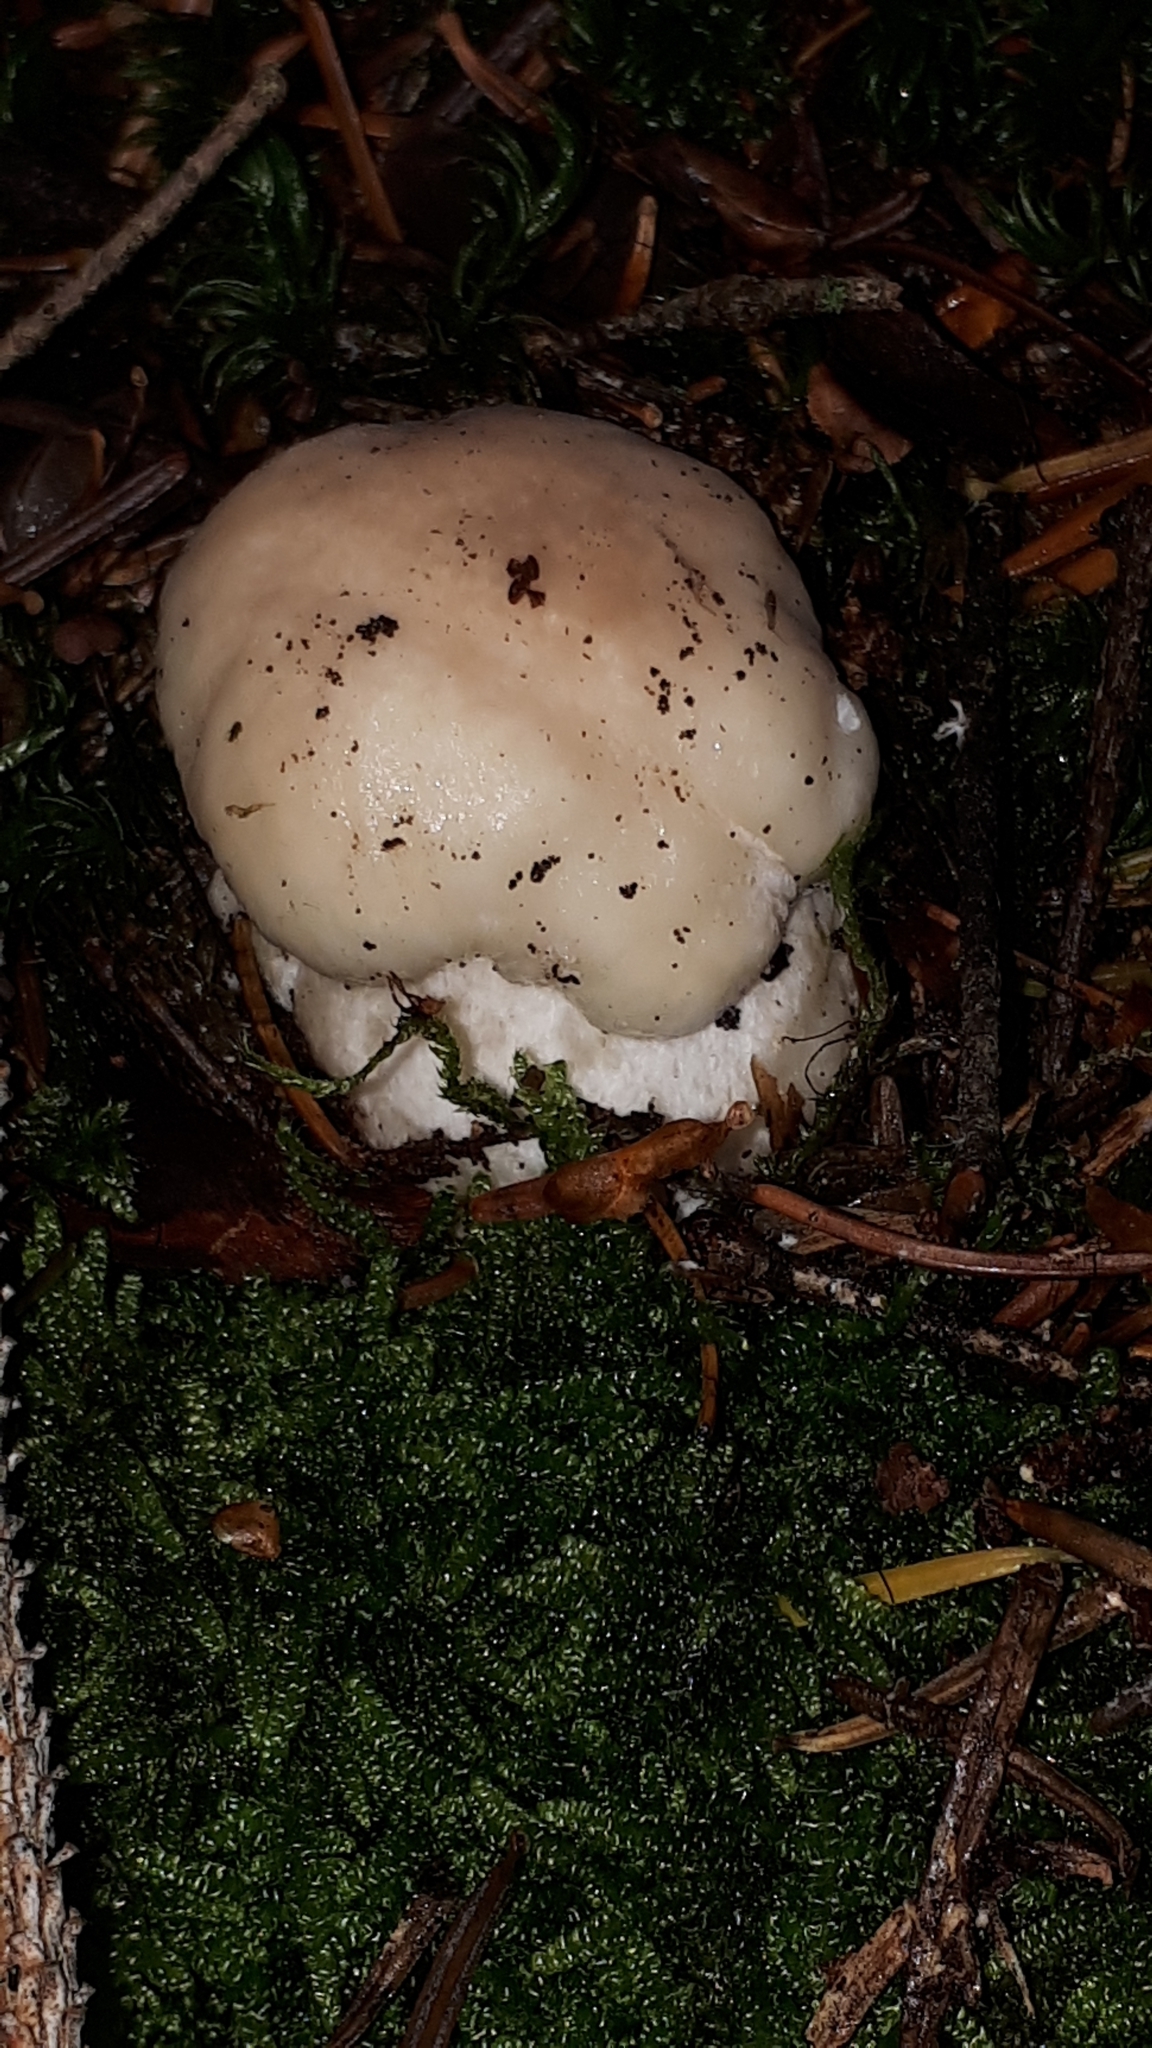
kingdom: Fungi
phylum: Basidiomycota
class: Agaricomycetes
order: Boletales
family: Boletaceae
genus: Boletus
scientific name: Boletus edulis
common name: Cep
